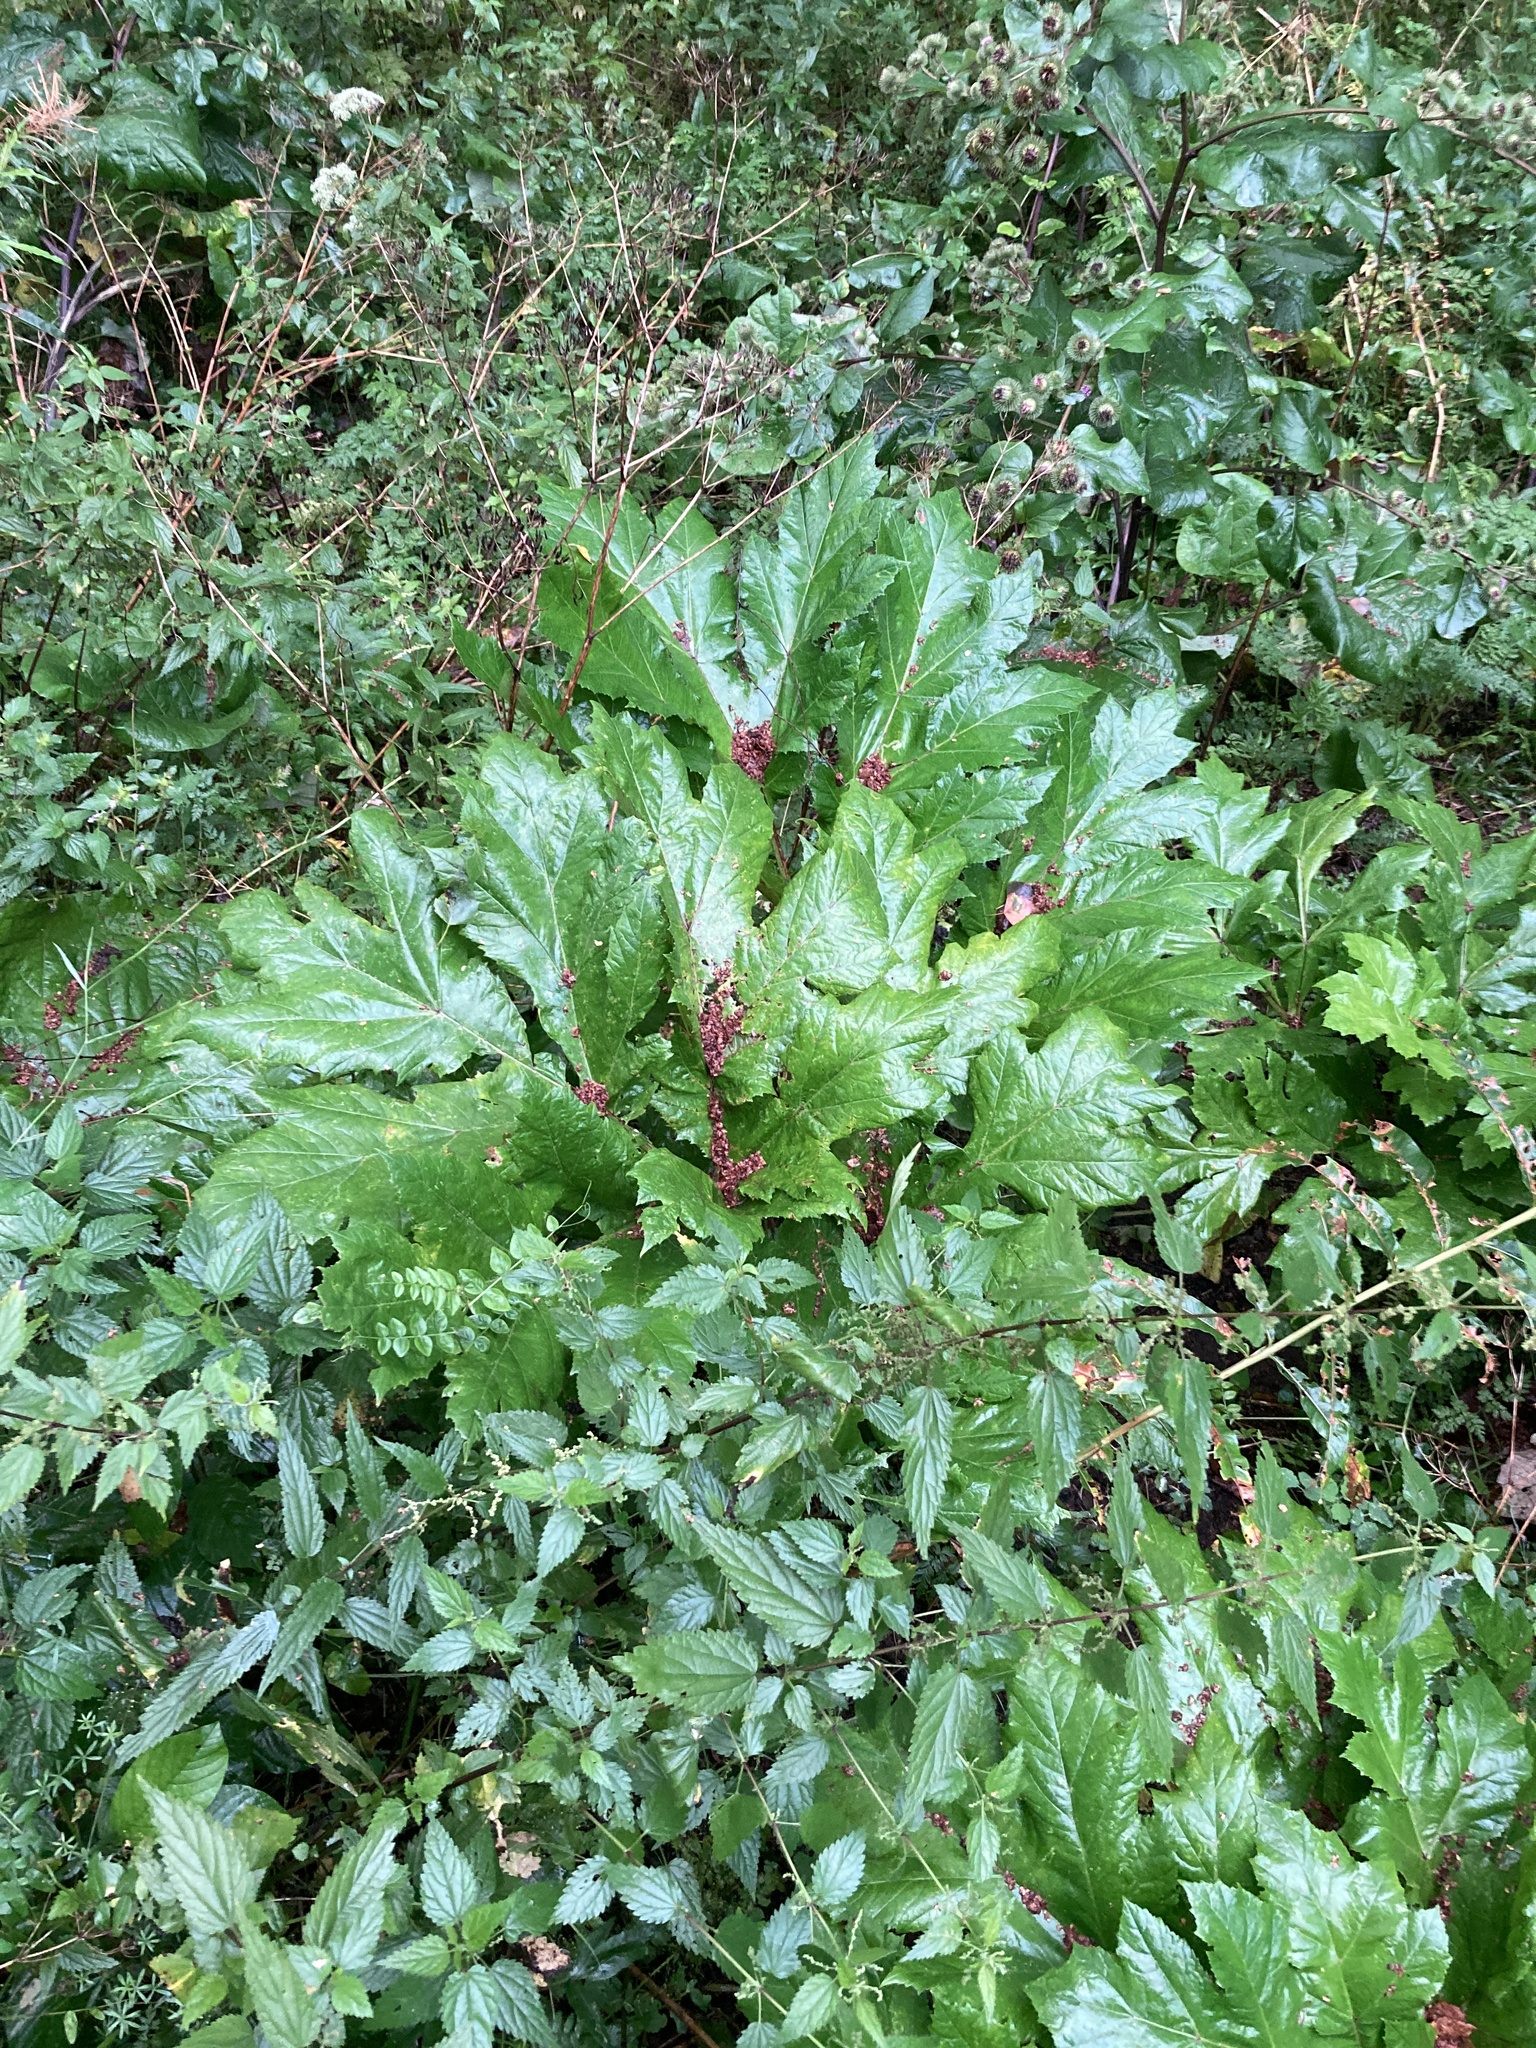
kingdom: Plantae
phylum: Tracheophyta
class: Magnoliopsida
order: Apiales
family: Apiaceae
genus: Heracleum
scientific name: Heracleum sosnowskyi
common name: Sosnowsky's hogweed
